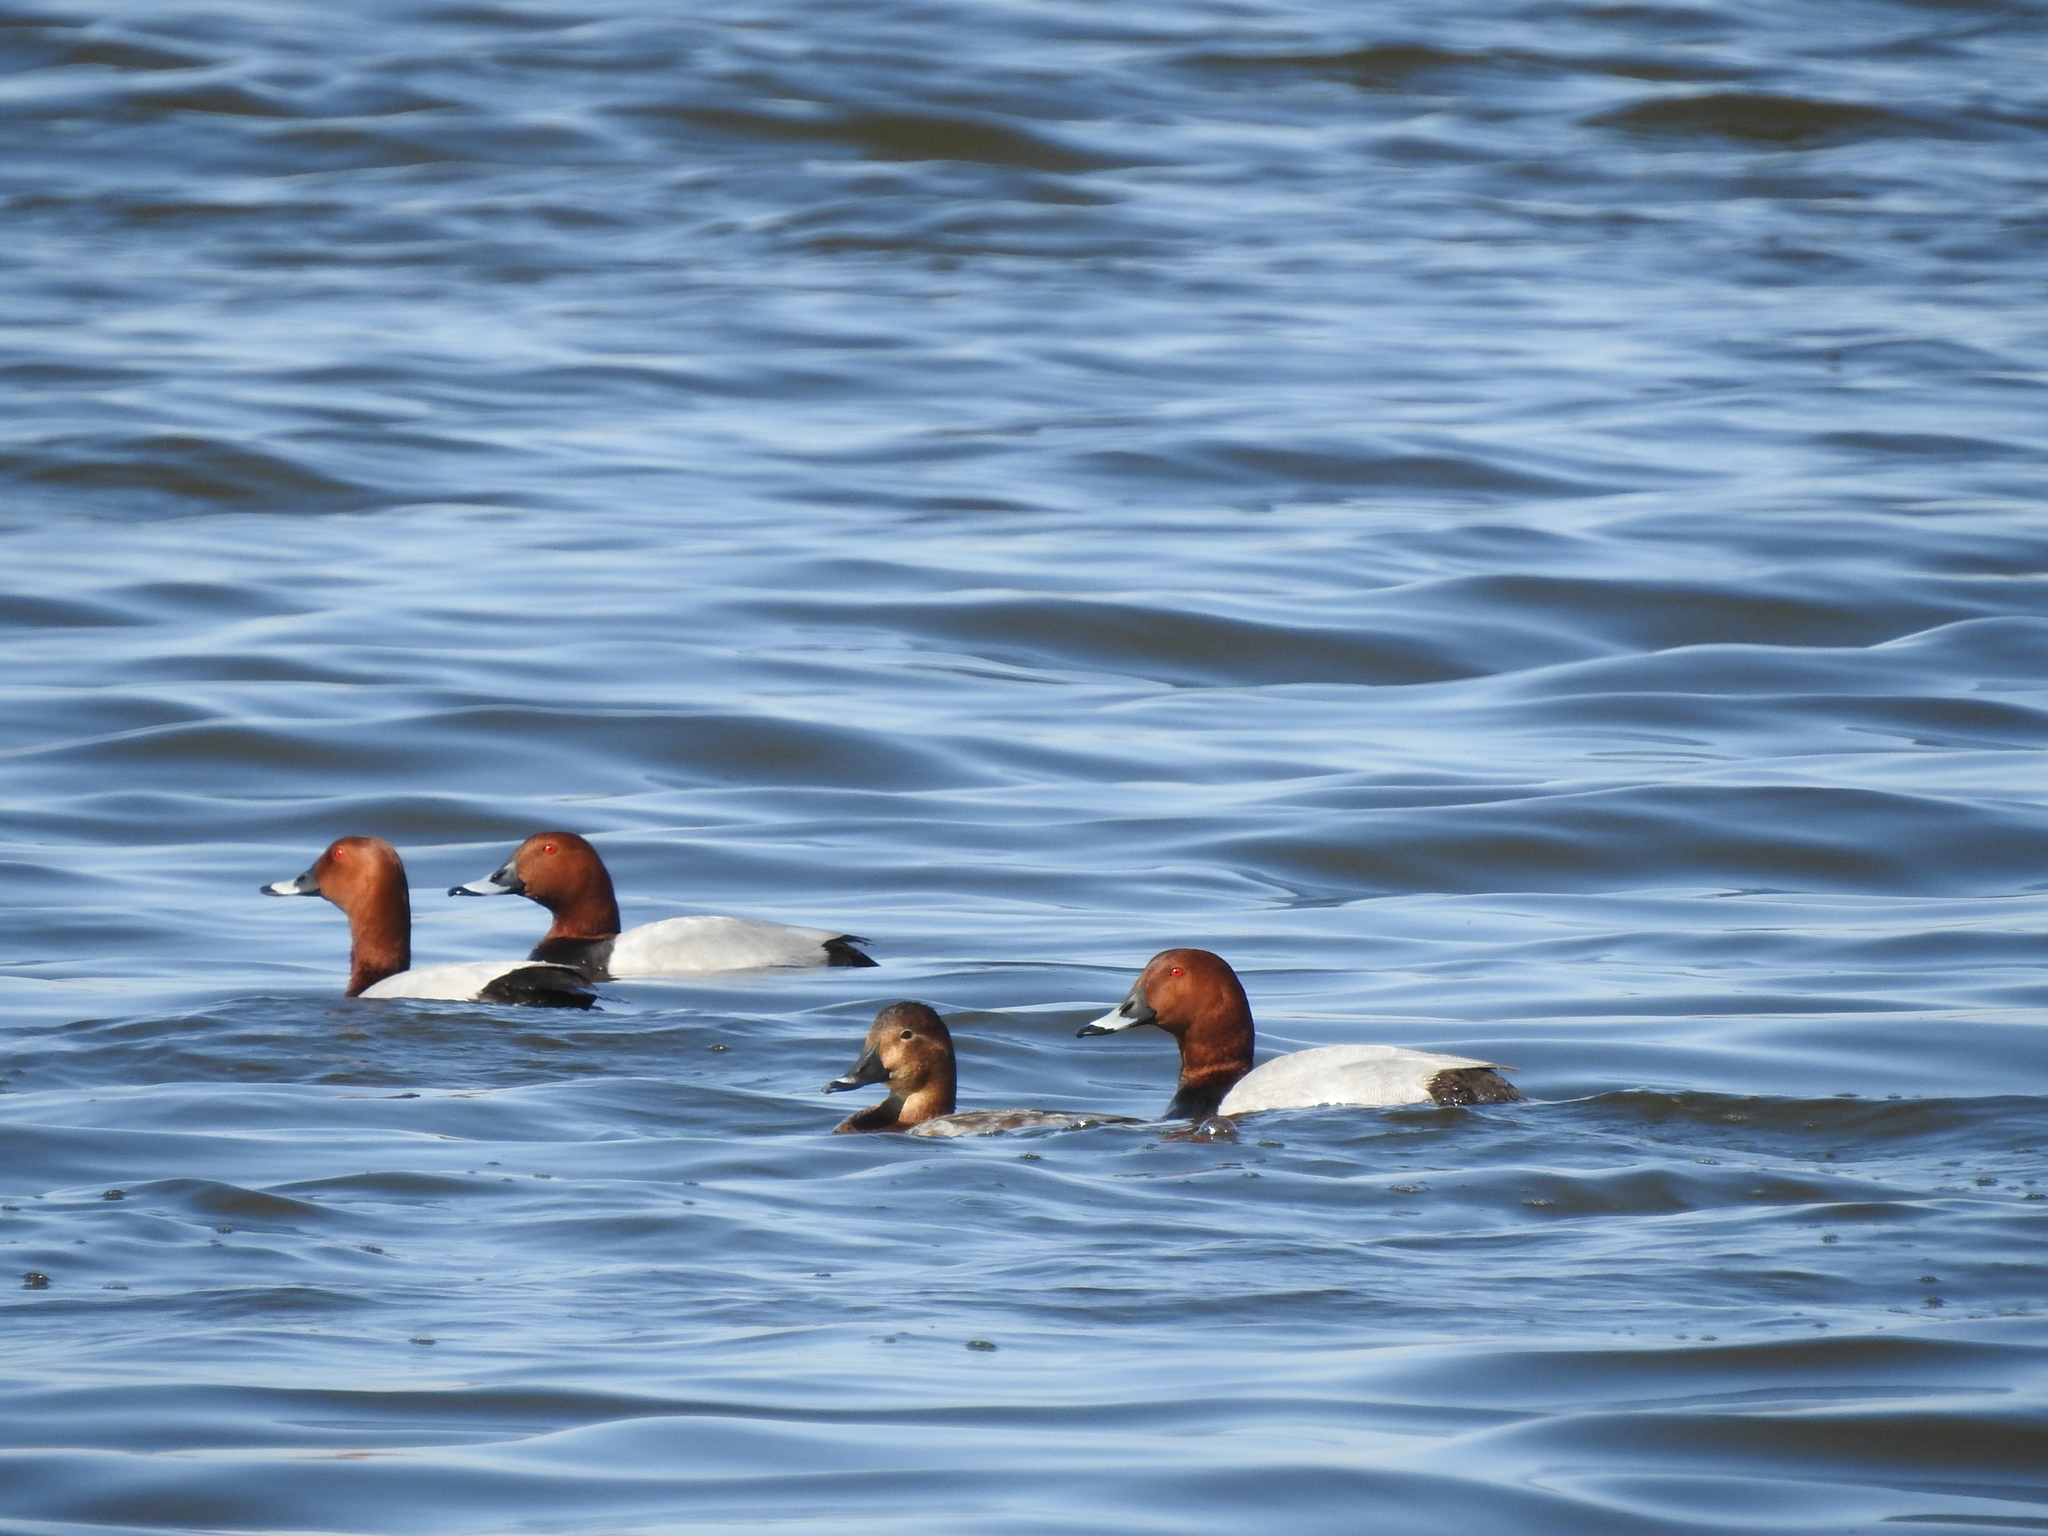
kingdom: Animalia
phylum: Chordata
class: Aves
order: Anseriformes
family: Anatidae
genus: Aythya
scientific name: Aythya ferina
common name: Common pochard
